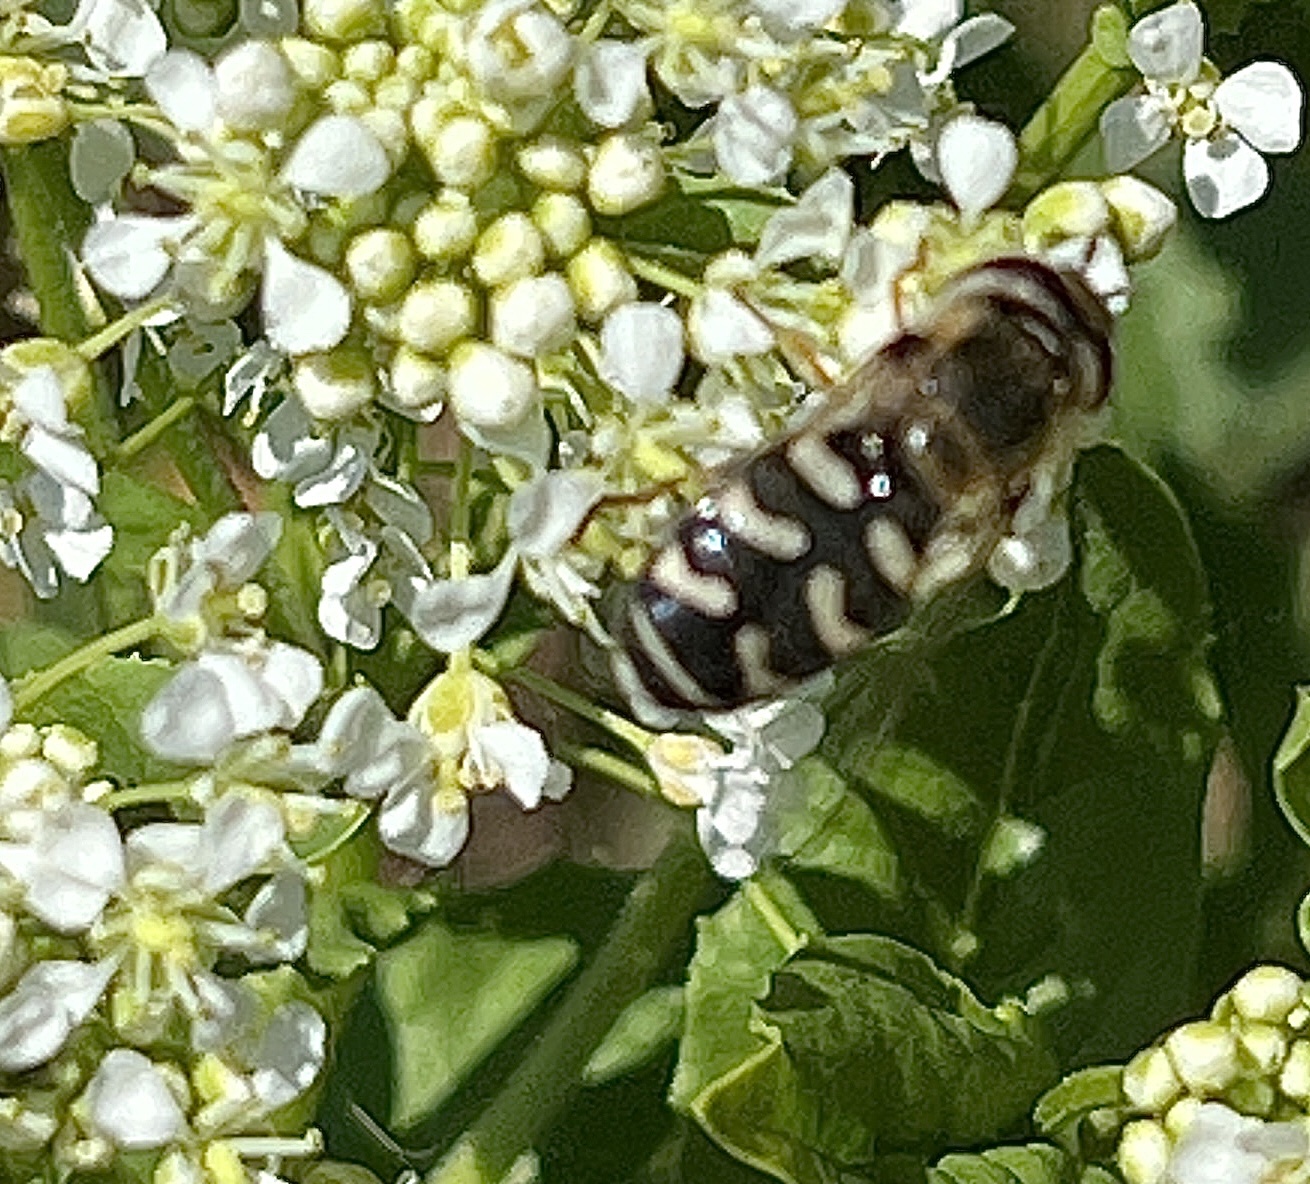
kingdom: Animalia
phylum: Arthropoda
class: Insecta
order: Diptera
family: Syrphidae
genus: Scaeva
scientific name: Scaeva pyrastri
